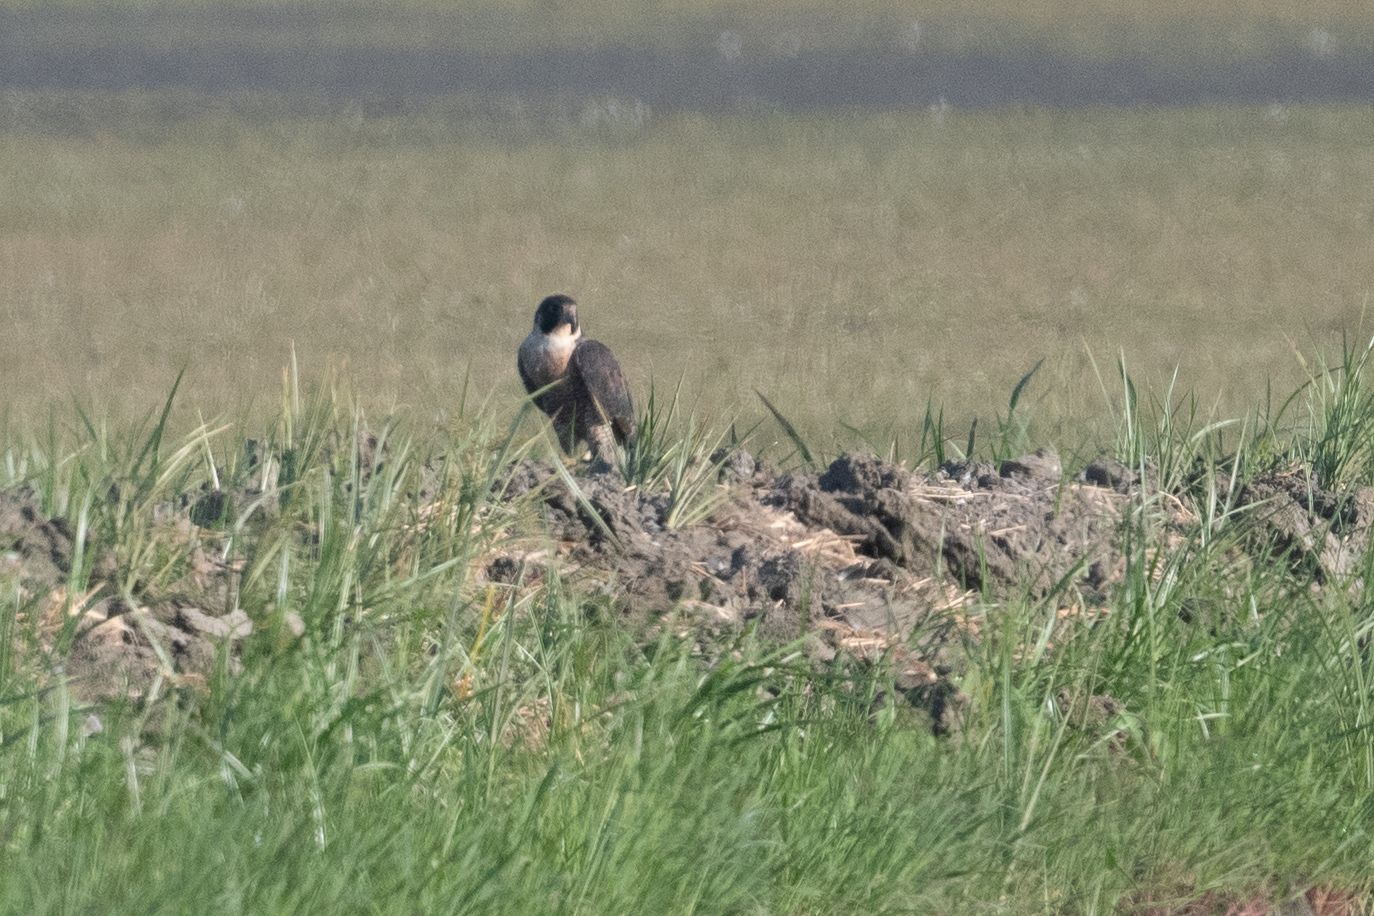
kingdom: Animalia
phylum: Chordata
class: Aves
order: Falconiformes
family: Falconidae
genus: Falco
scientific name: Falco peregrinus
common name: Peregrine falcon
